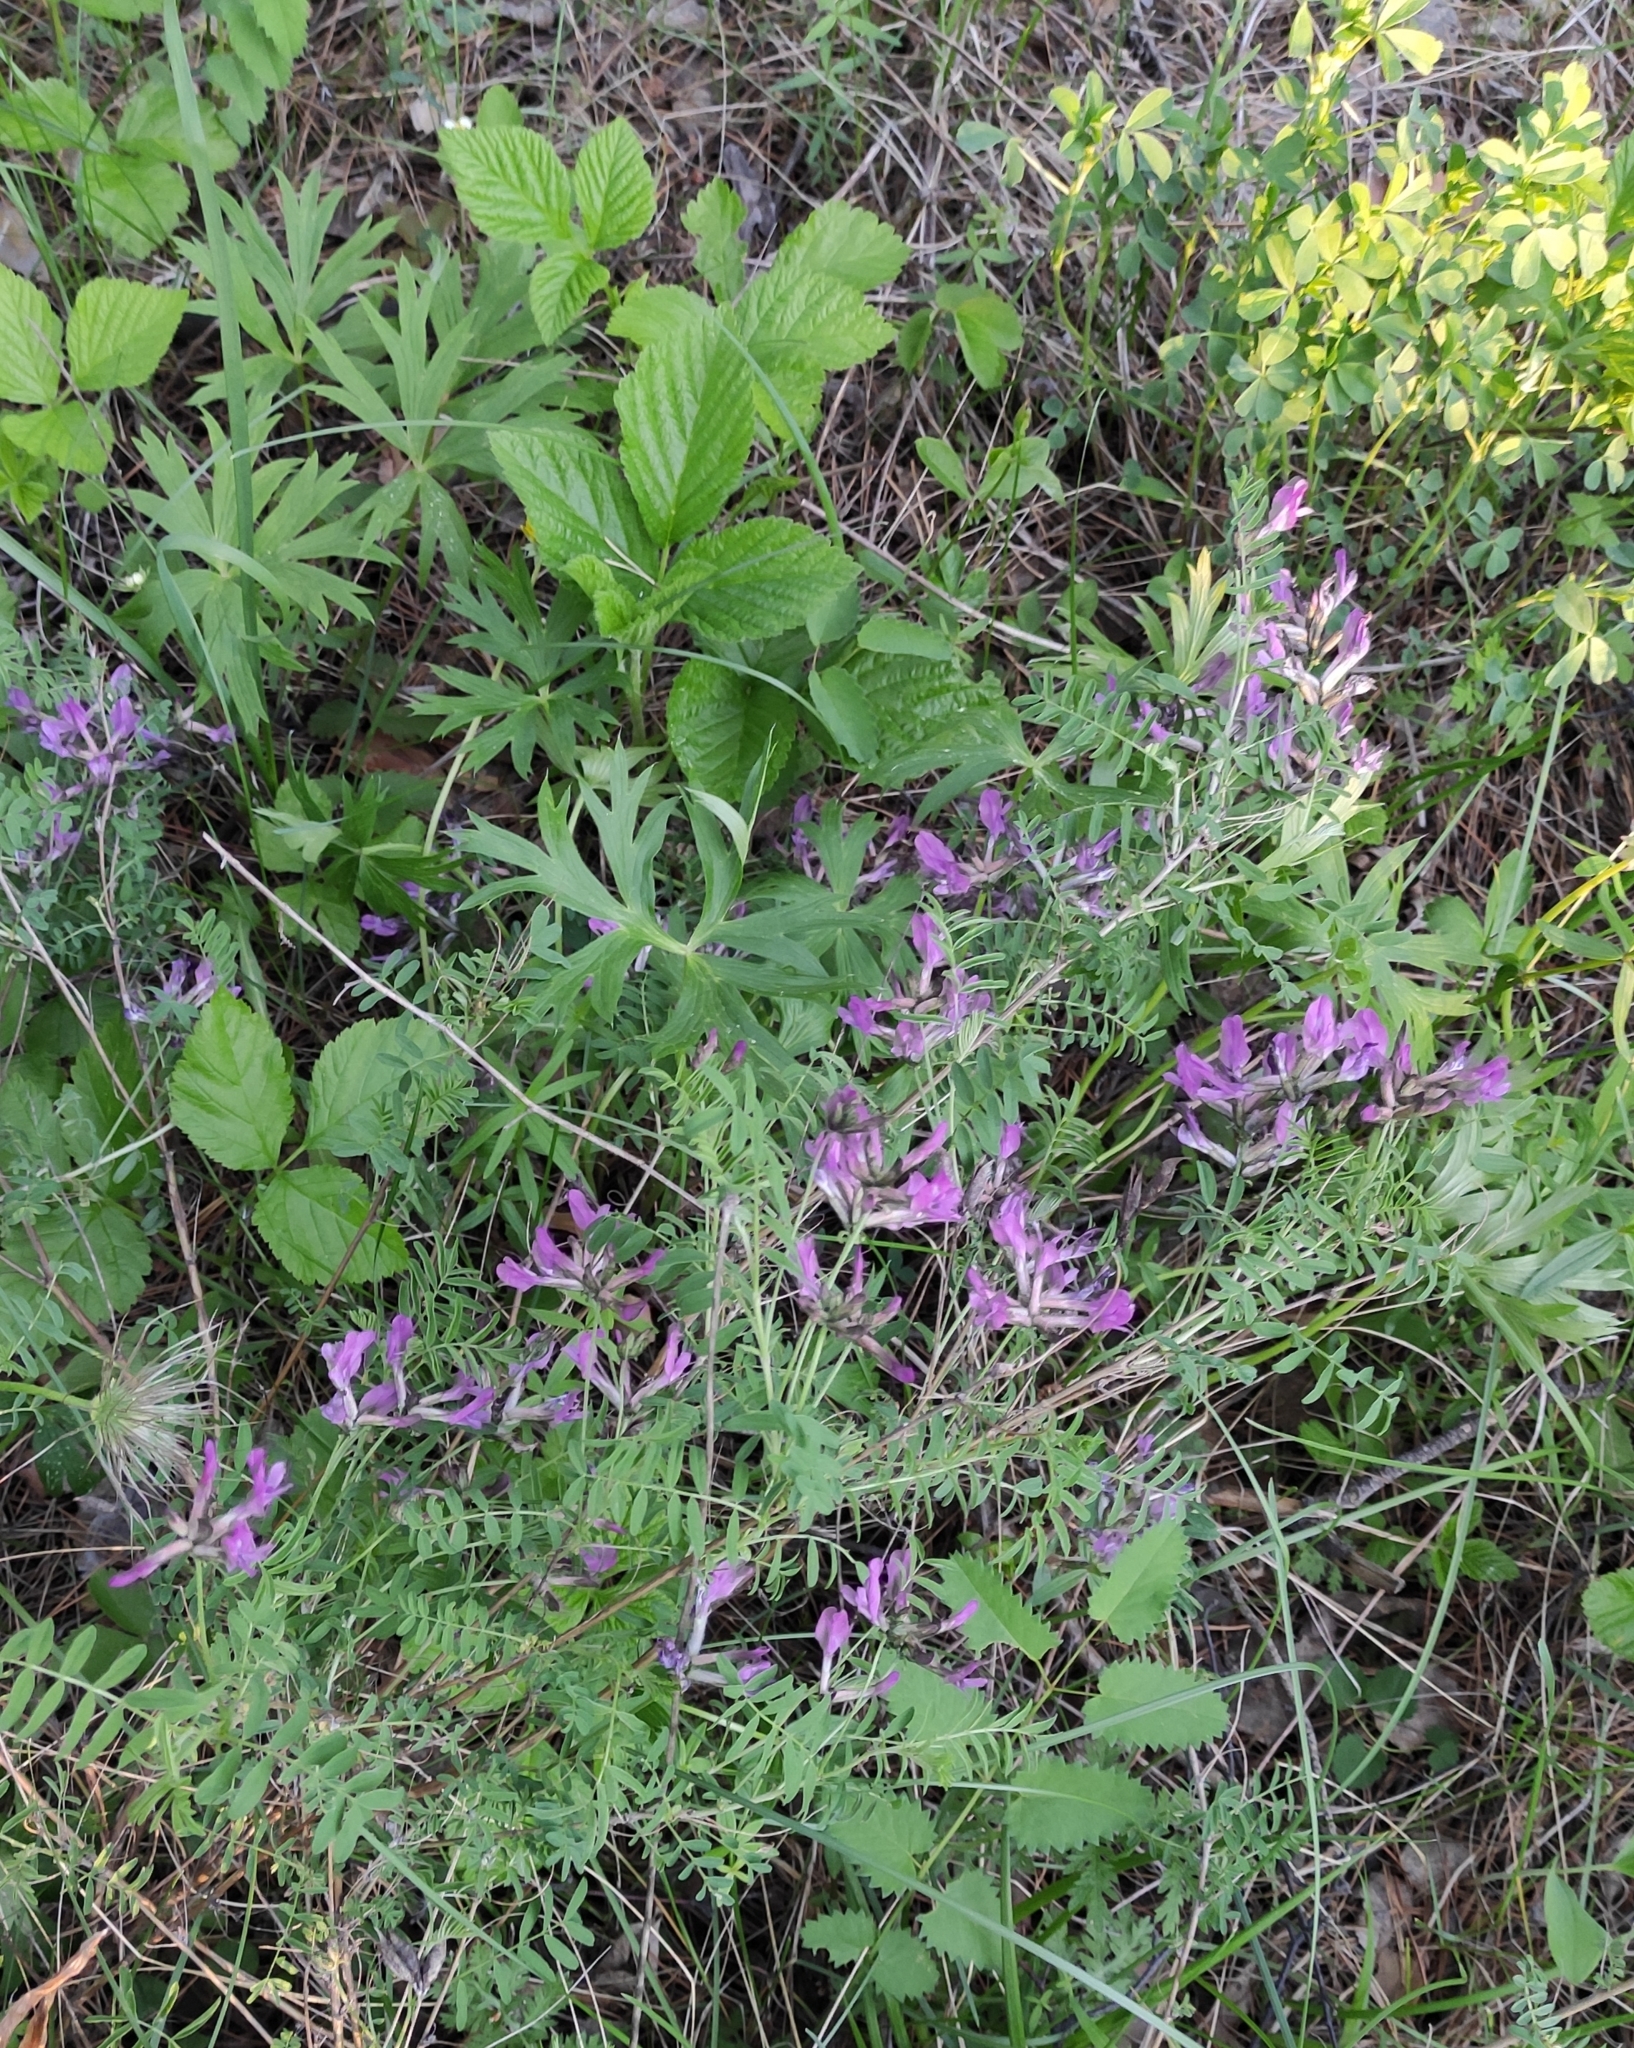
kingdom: Plantae
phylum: Tracheophyta
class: Magnoliopsida
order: Fabales
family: Fabaceae
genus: Astragalus
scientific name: Astragalus syriacus
